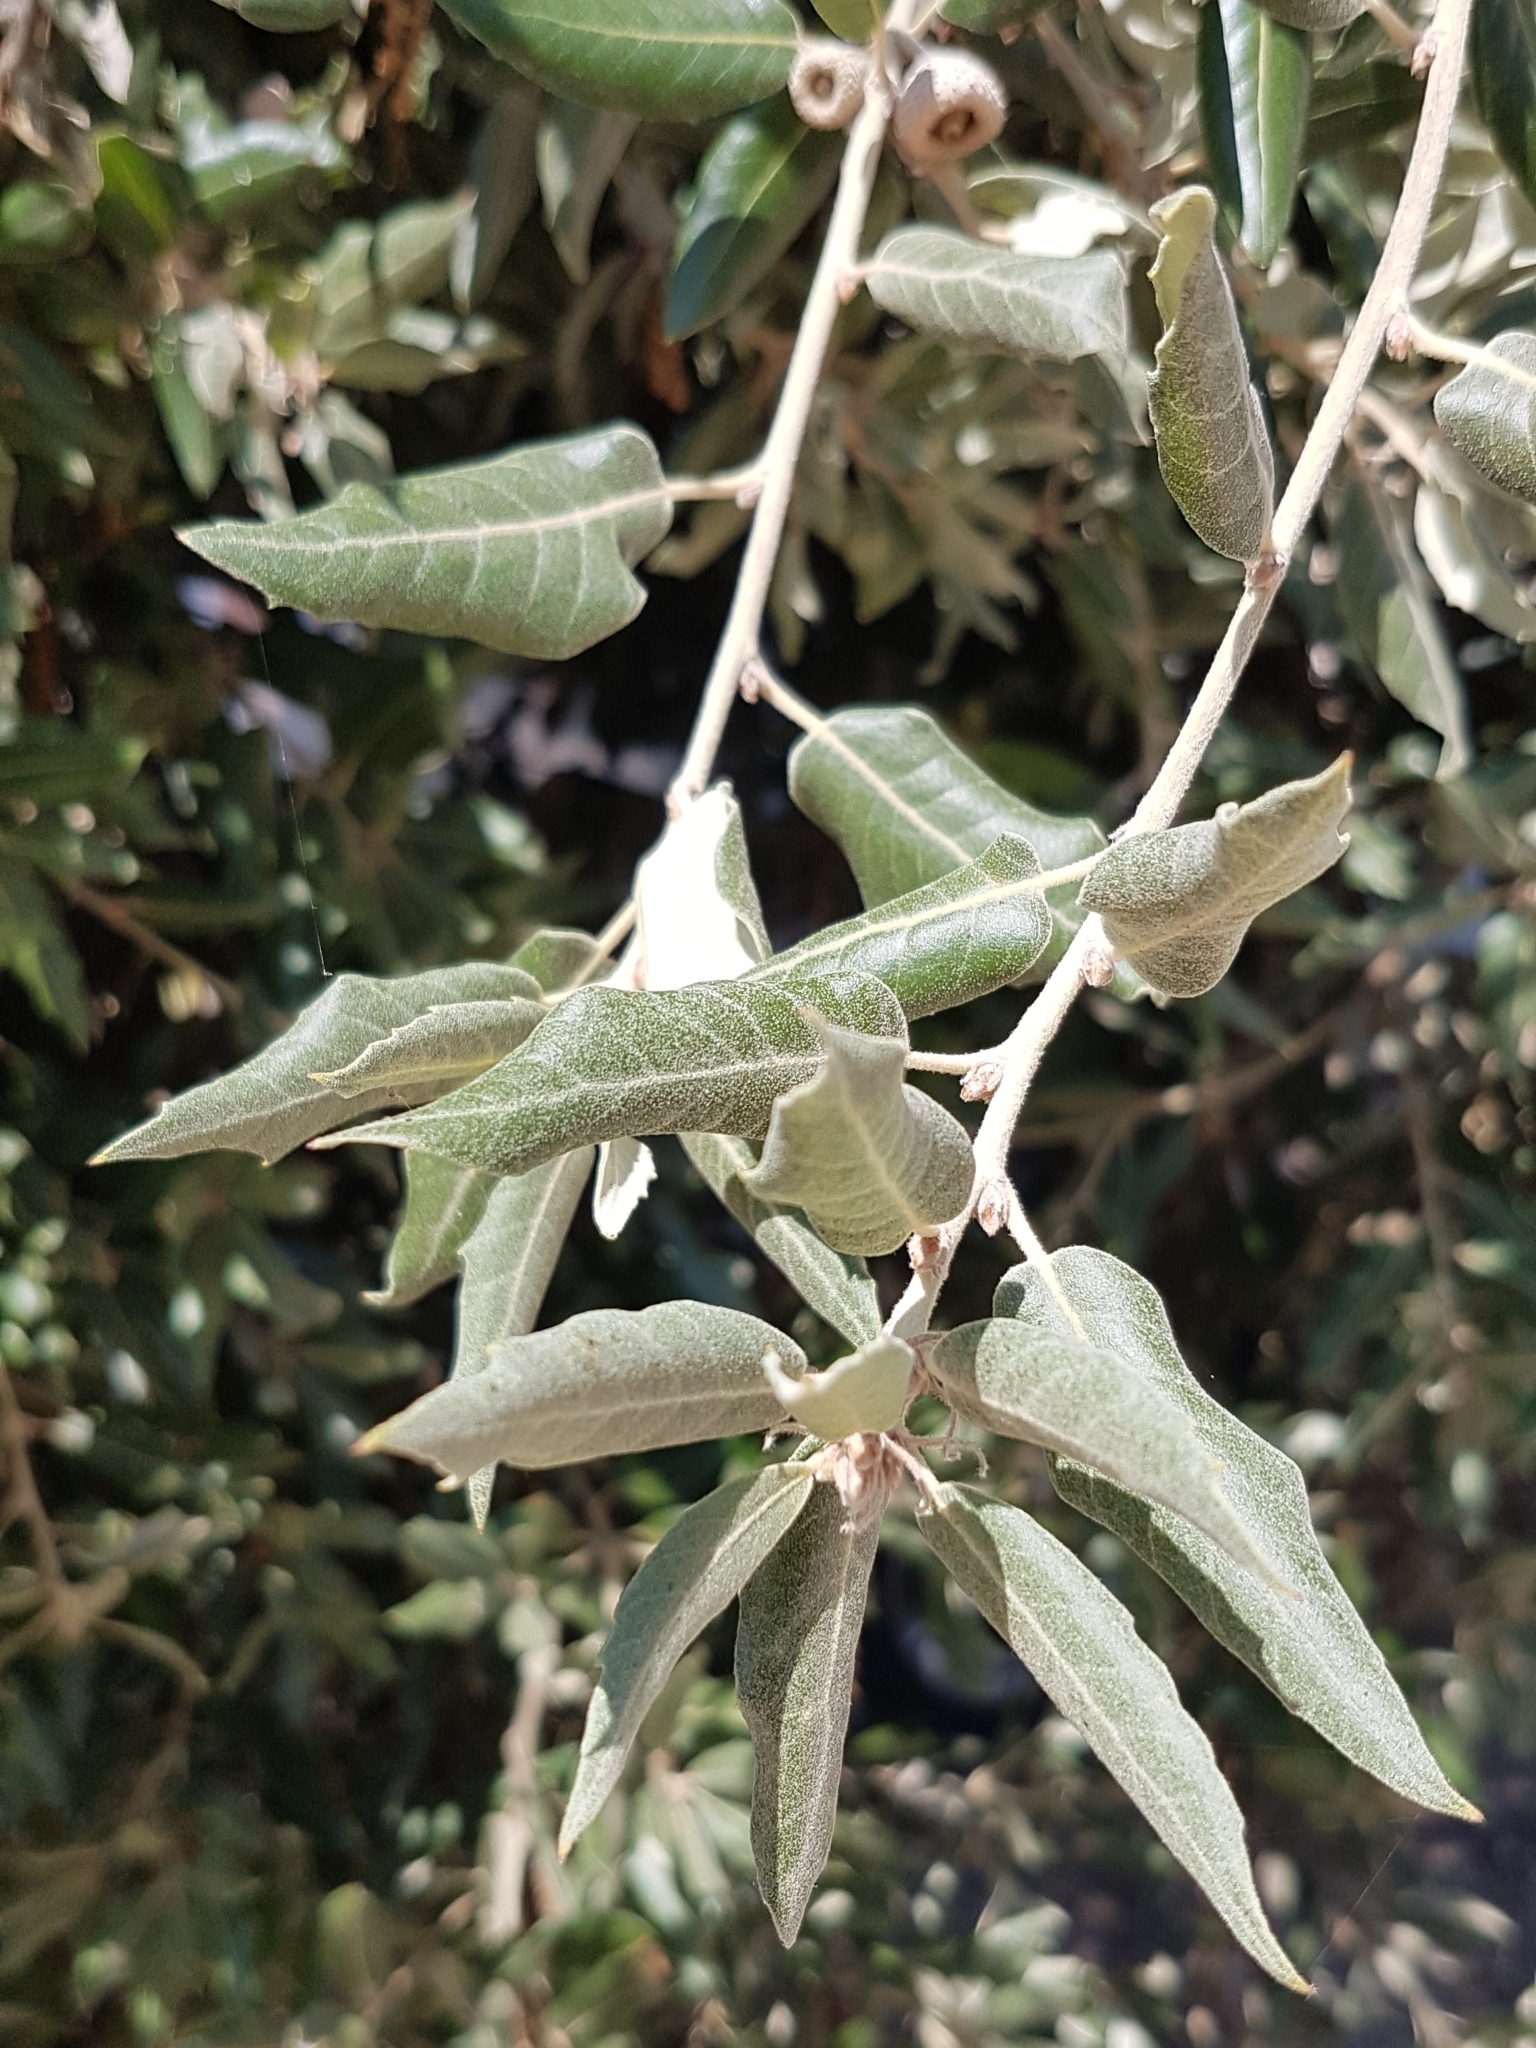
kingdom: Plantae
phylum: Tracheophyta
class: Magnoliopsida
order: Fagales
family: Fagaceae
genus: Quercus
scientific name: Quercus ilex
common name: Evergreen oak
